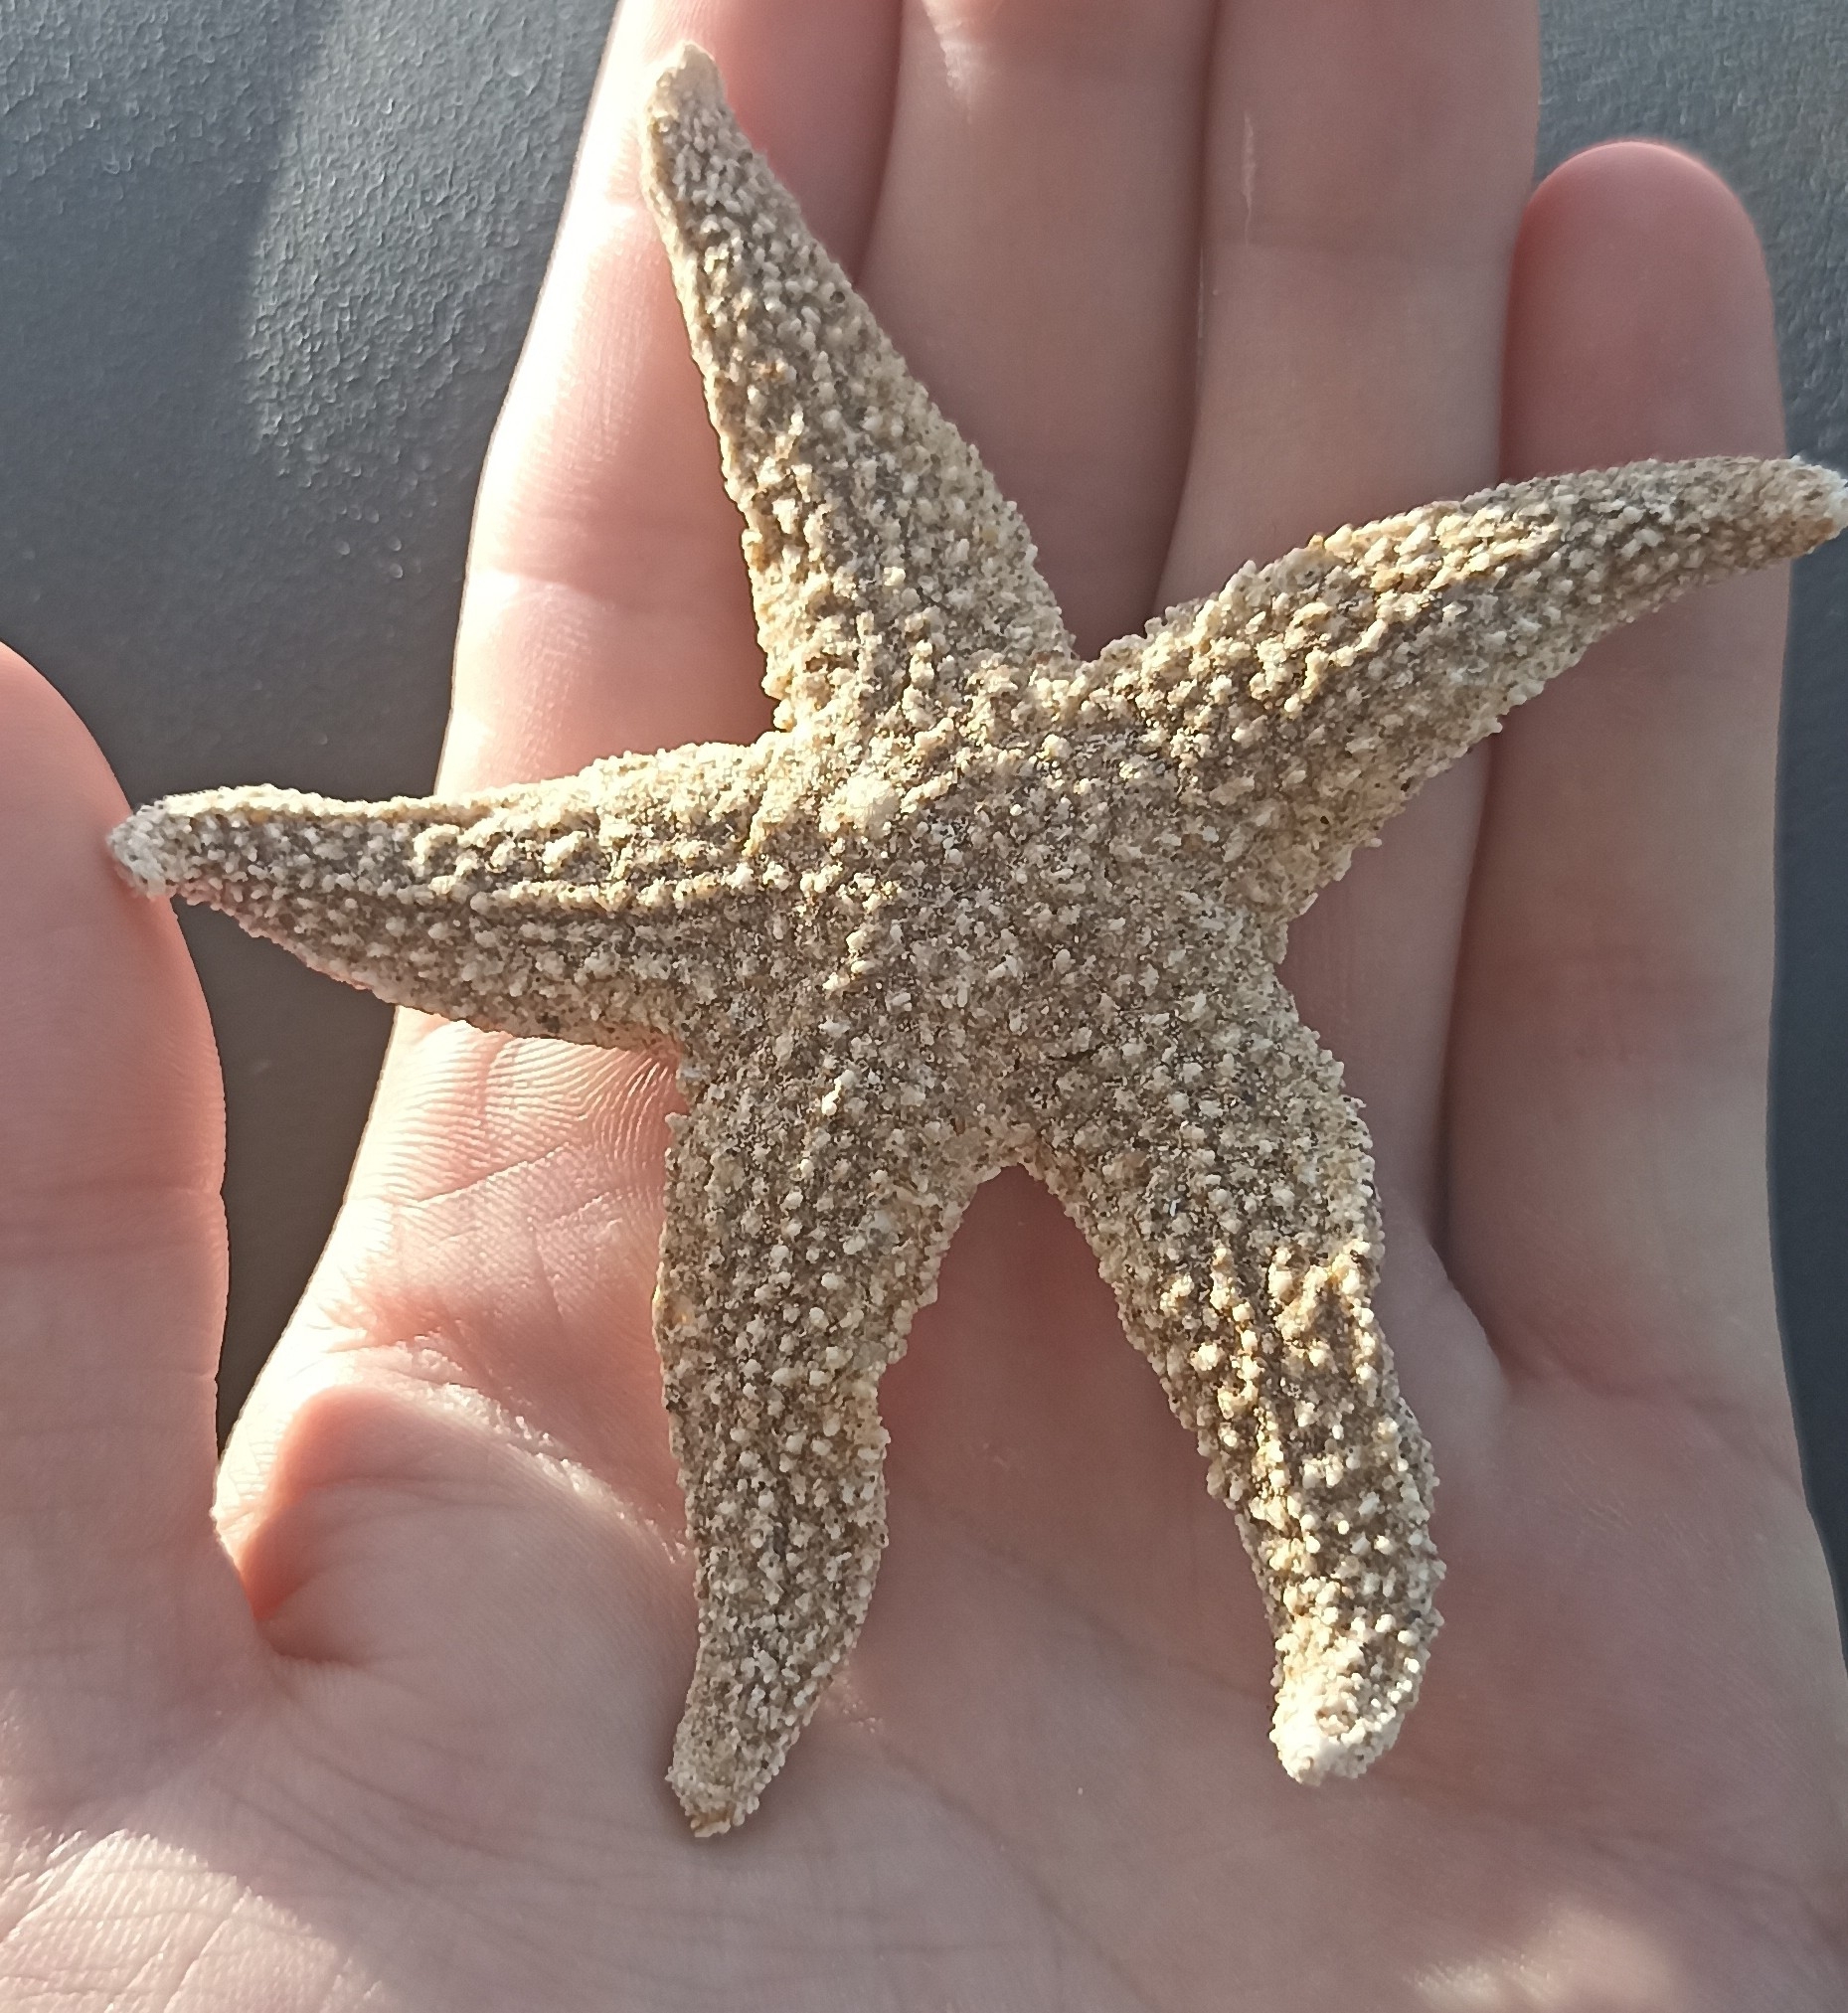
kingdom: Animalia
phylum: Echinodermata
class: Asteroidea
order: Forcipulatida
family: Asteriidae
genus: Asterias
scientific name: Asterias rubens
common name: Common starfish
